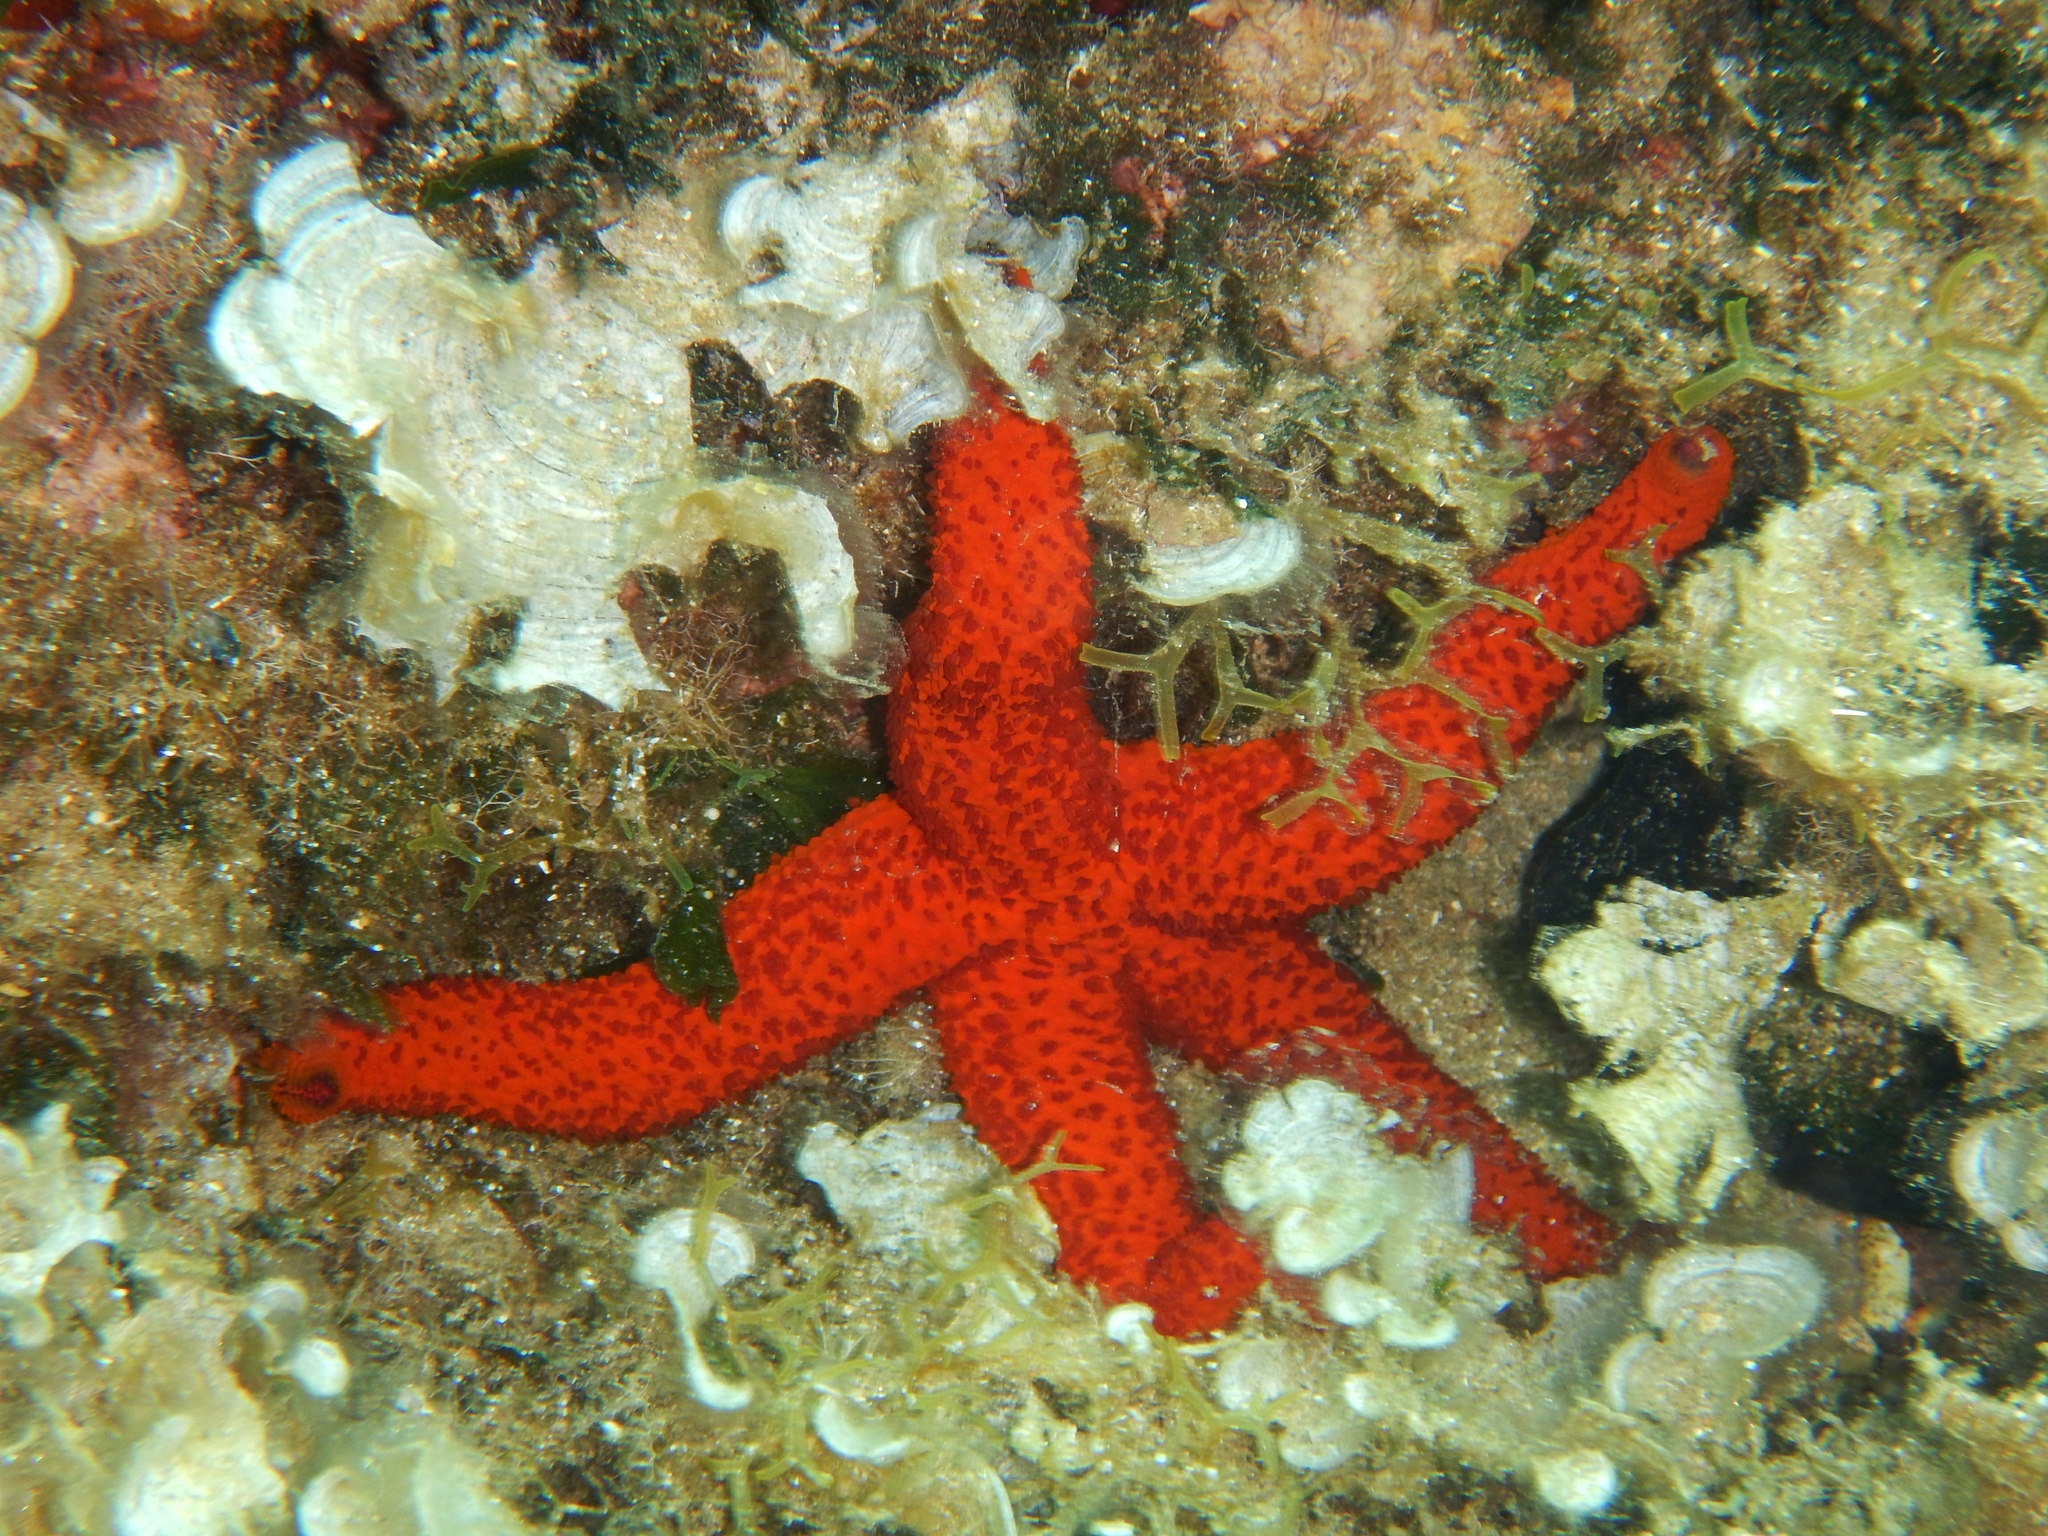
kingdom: Animalia
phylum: Echinodermata
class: Asteroidea
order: Spinulosida
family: Echinasteridae
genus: Echinaster
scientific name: Echinaster sepositus
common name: Red starfish
